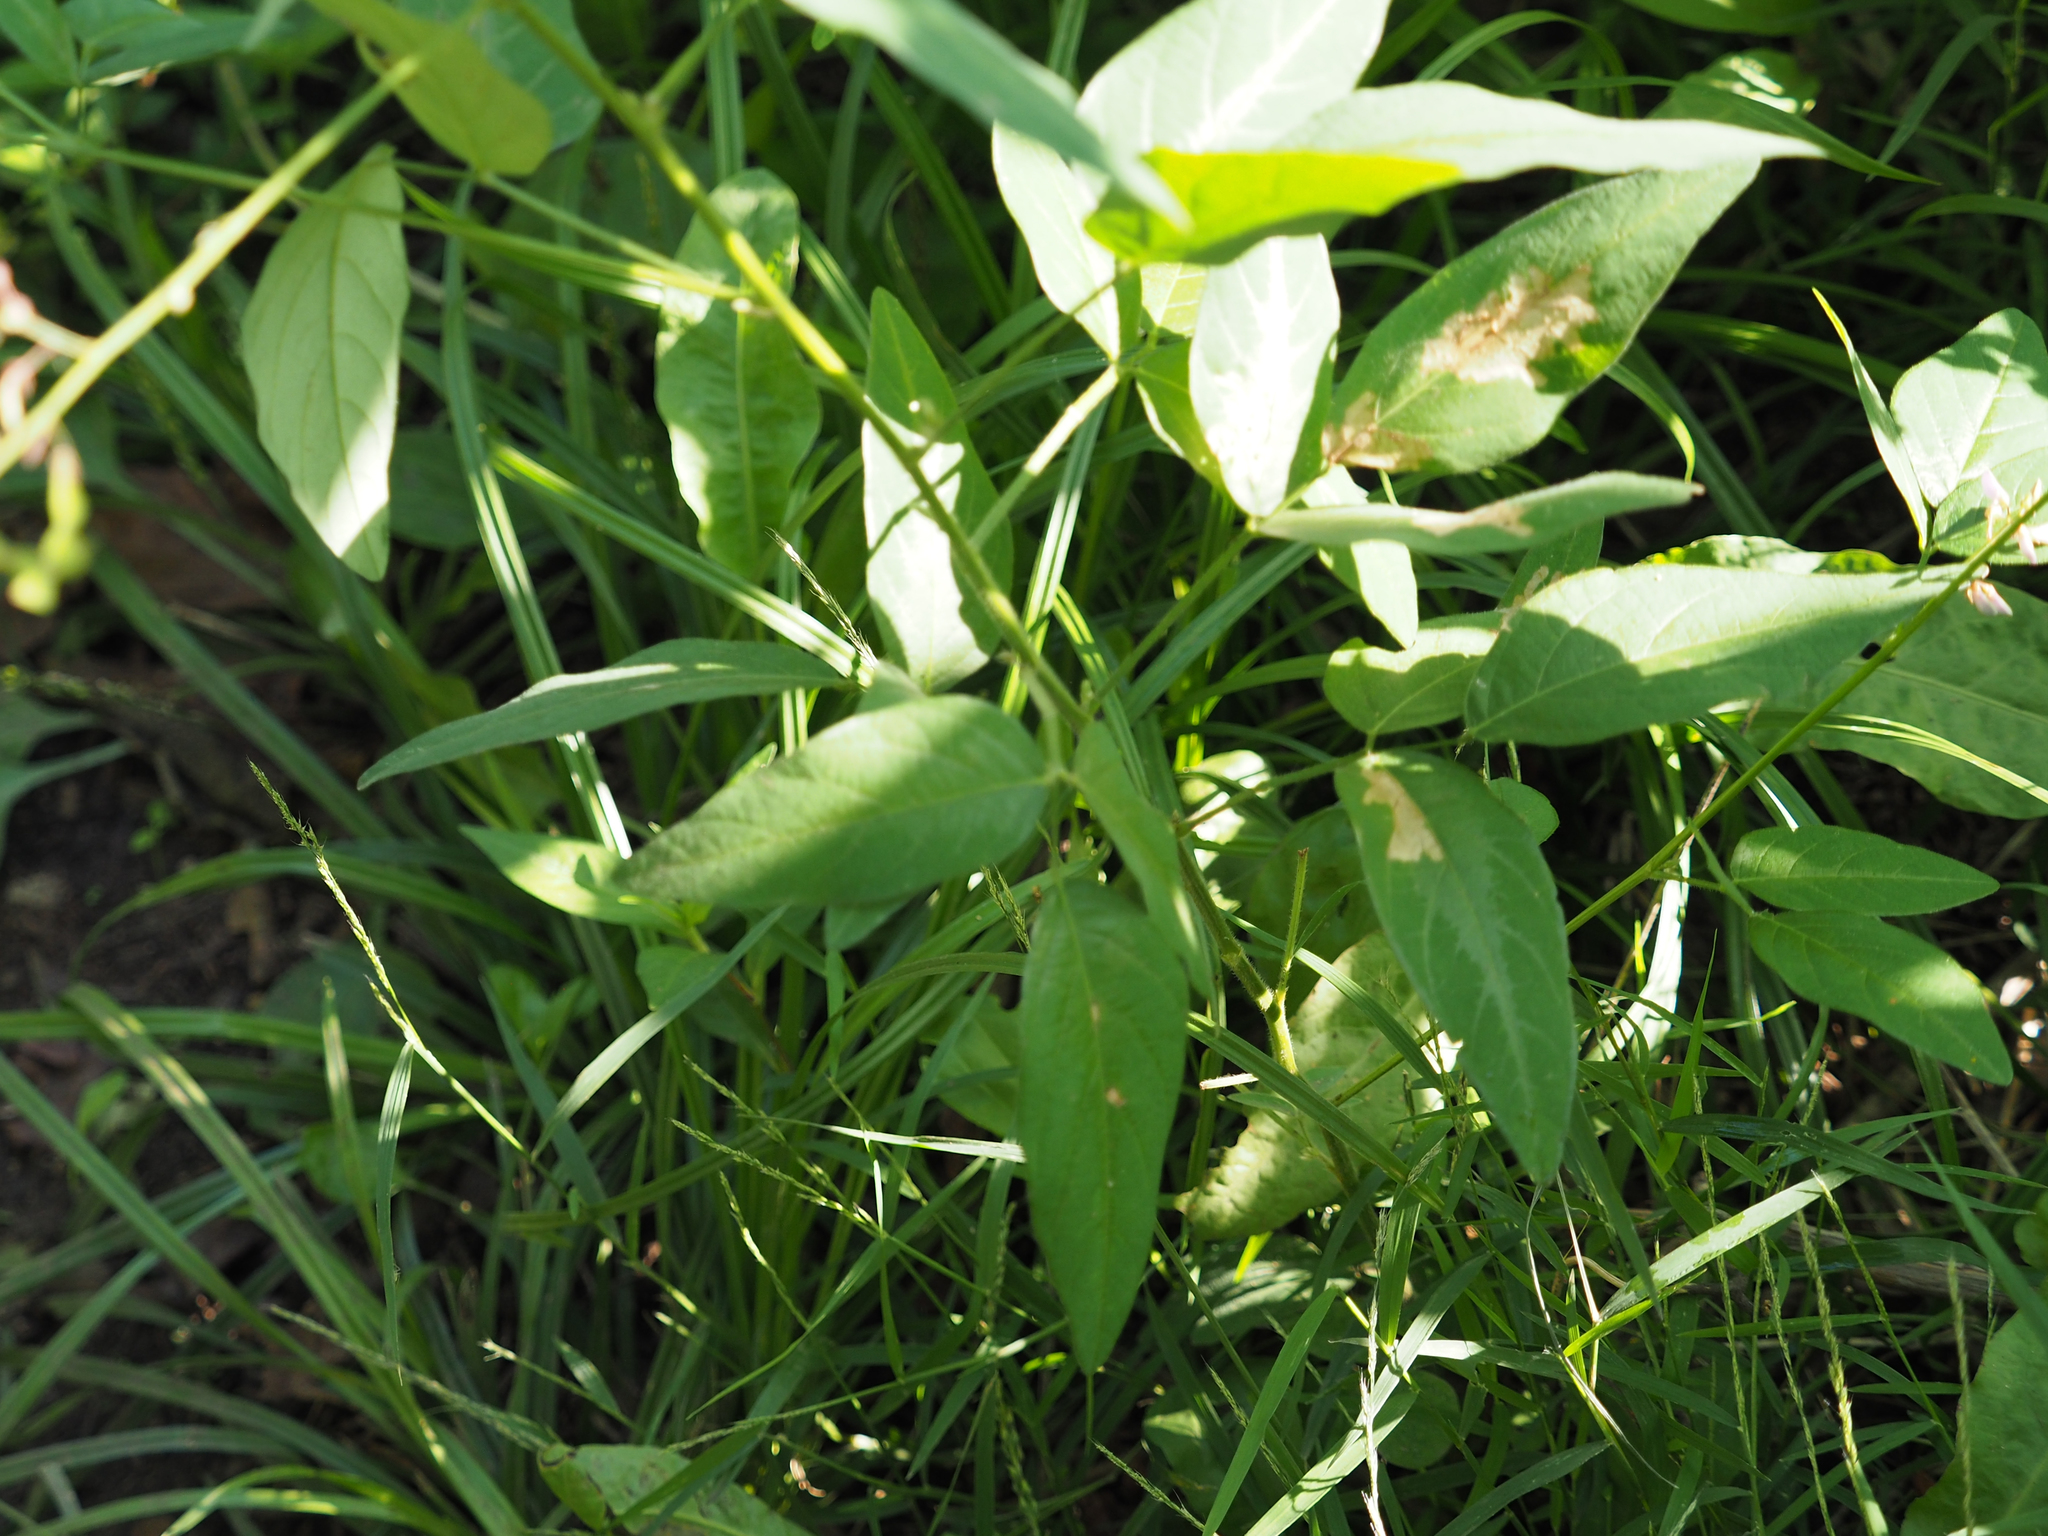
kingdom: Plantae
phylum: Tracheophyta
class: Magnoliopsida
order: Fabales
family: Fabaceae
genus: Desmodium
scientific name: Desmodium paniculatum
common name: Panicled tick-clover
